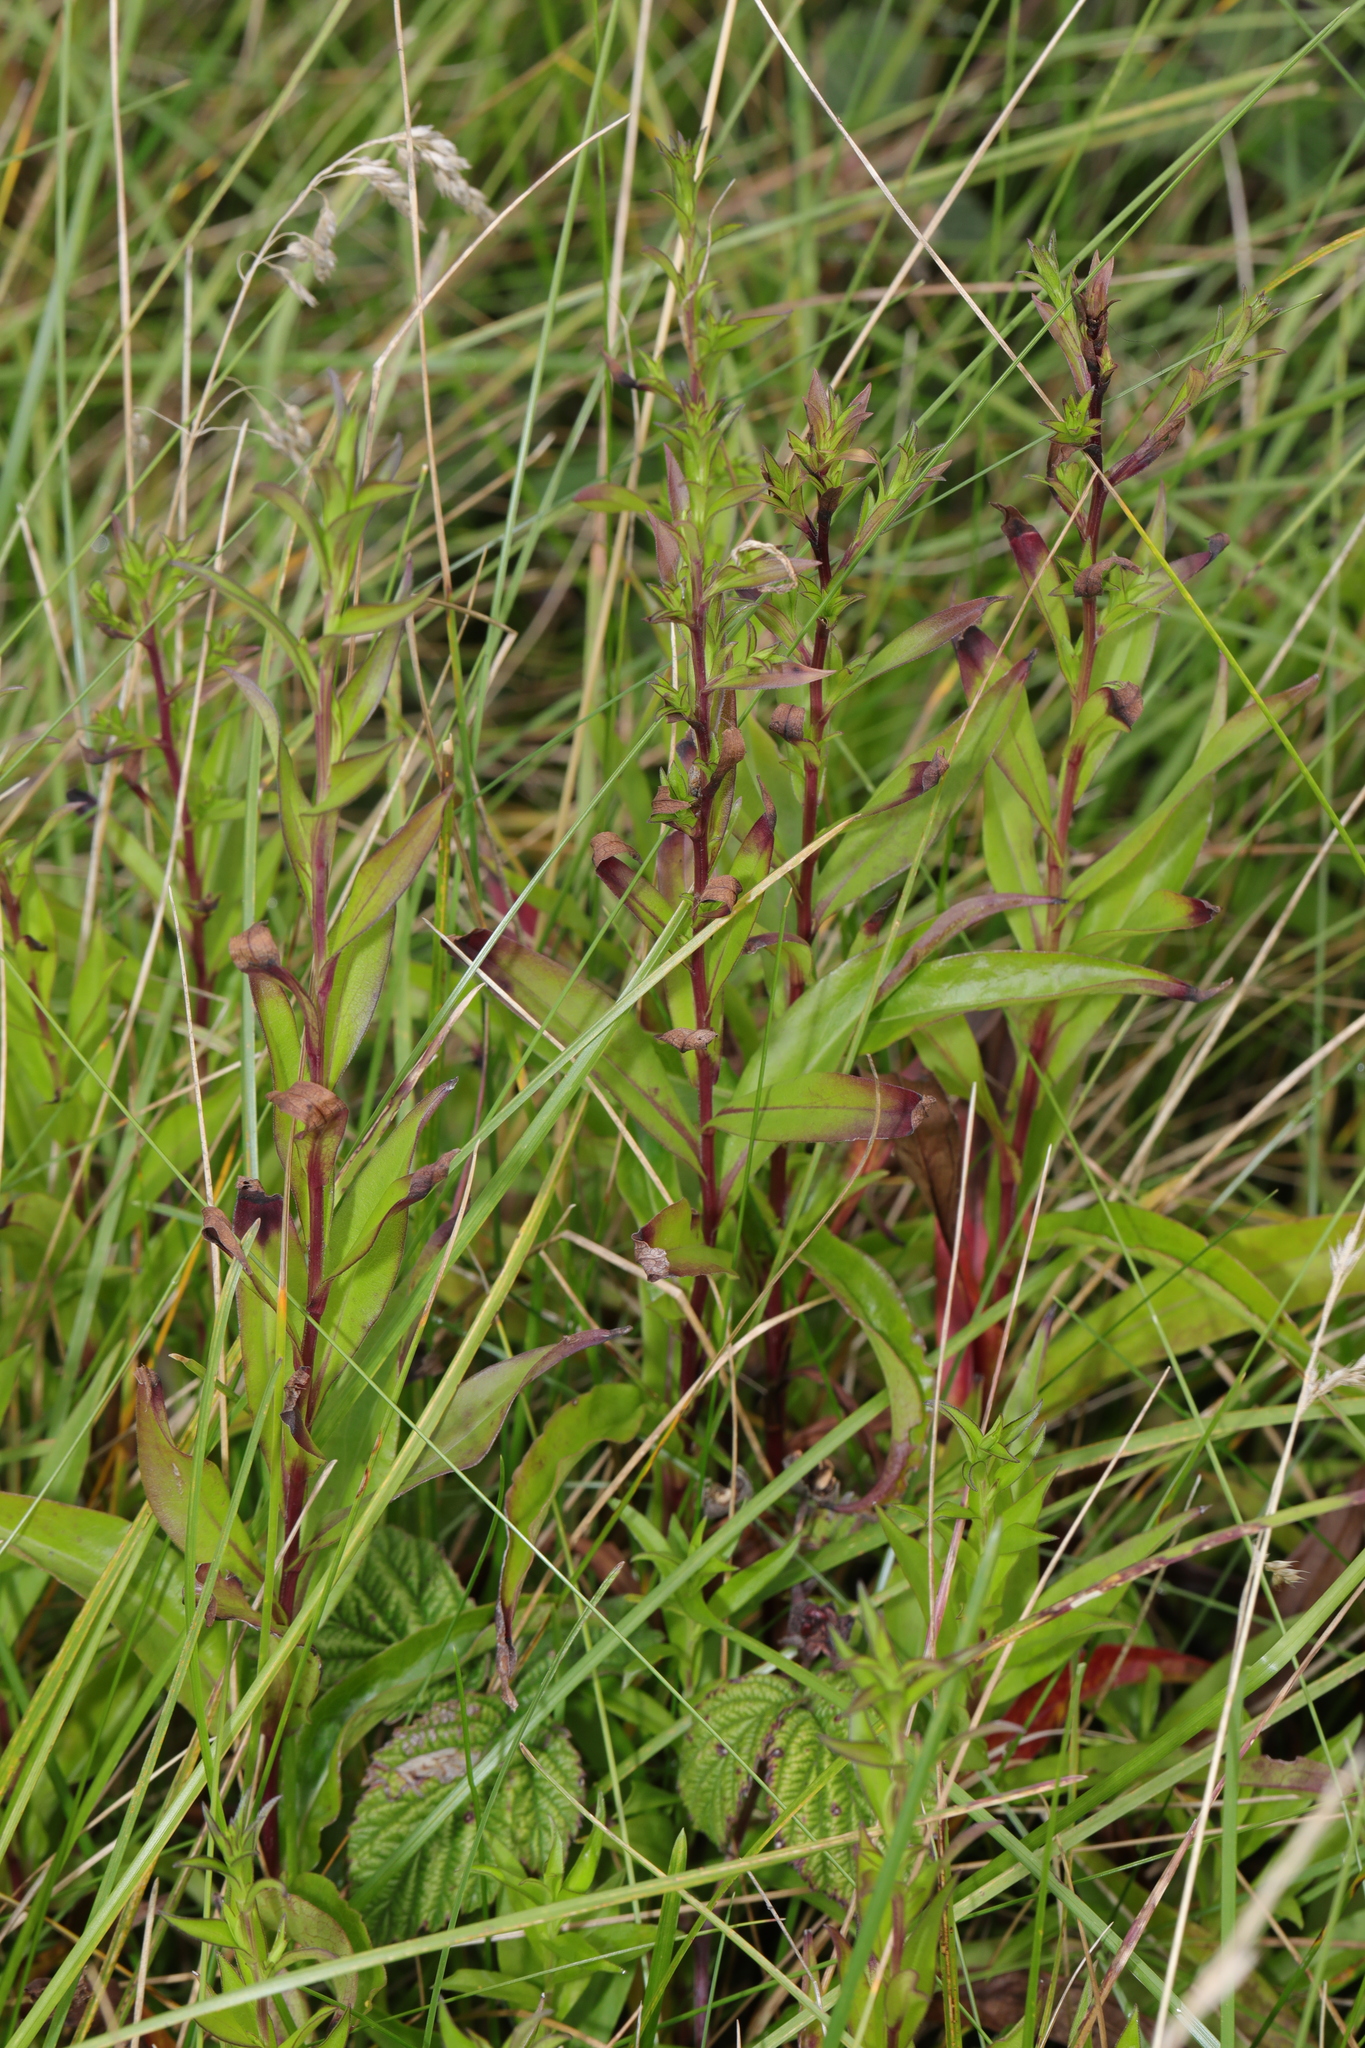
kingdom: Plantae
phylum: Tracheophyta
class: Magnoliopsida
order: Myrtales
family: Onagraceae
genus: Chamaenerion
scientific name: Chamaenerion angustifolium
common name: Fireweed
